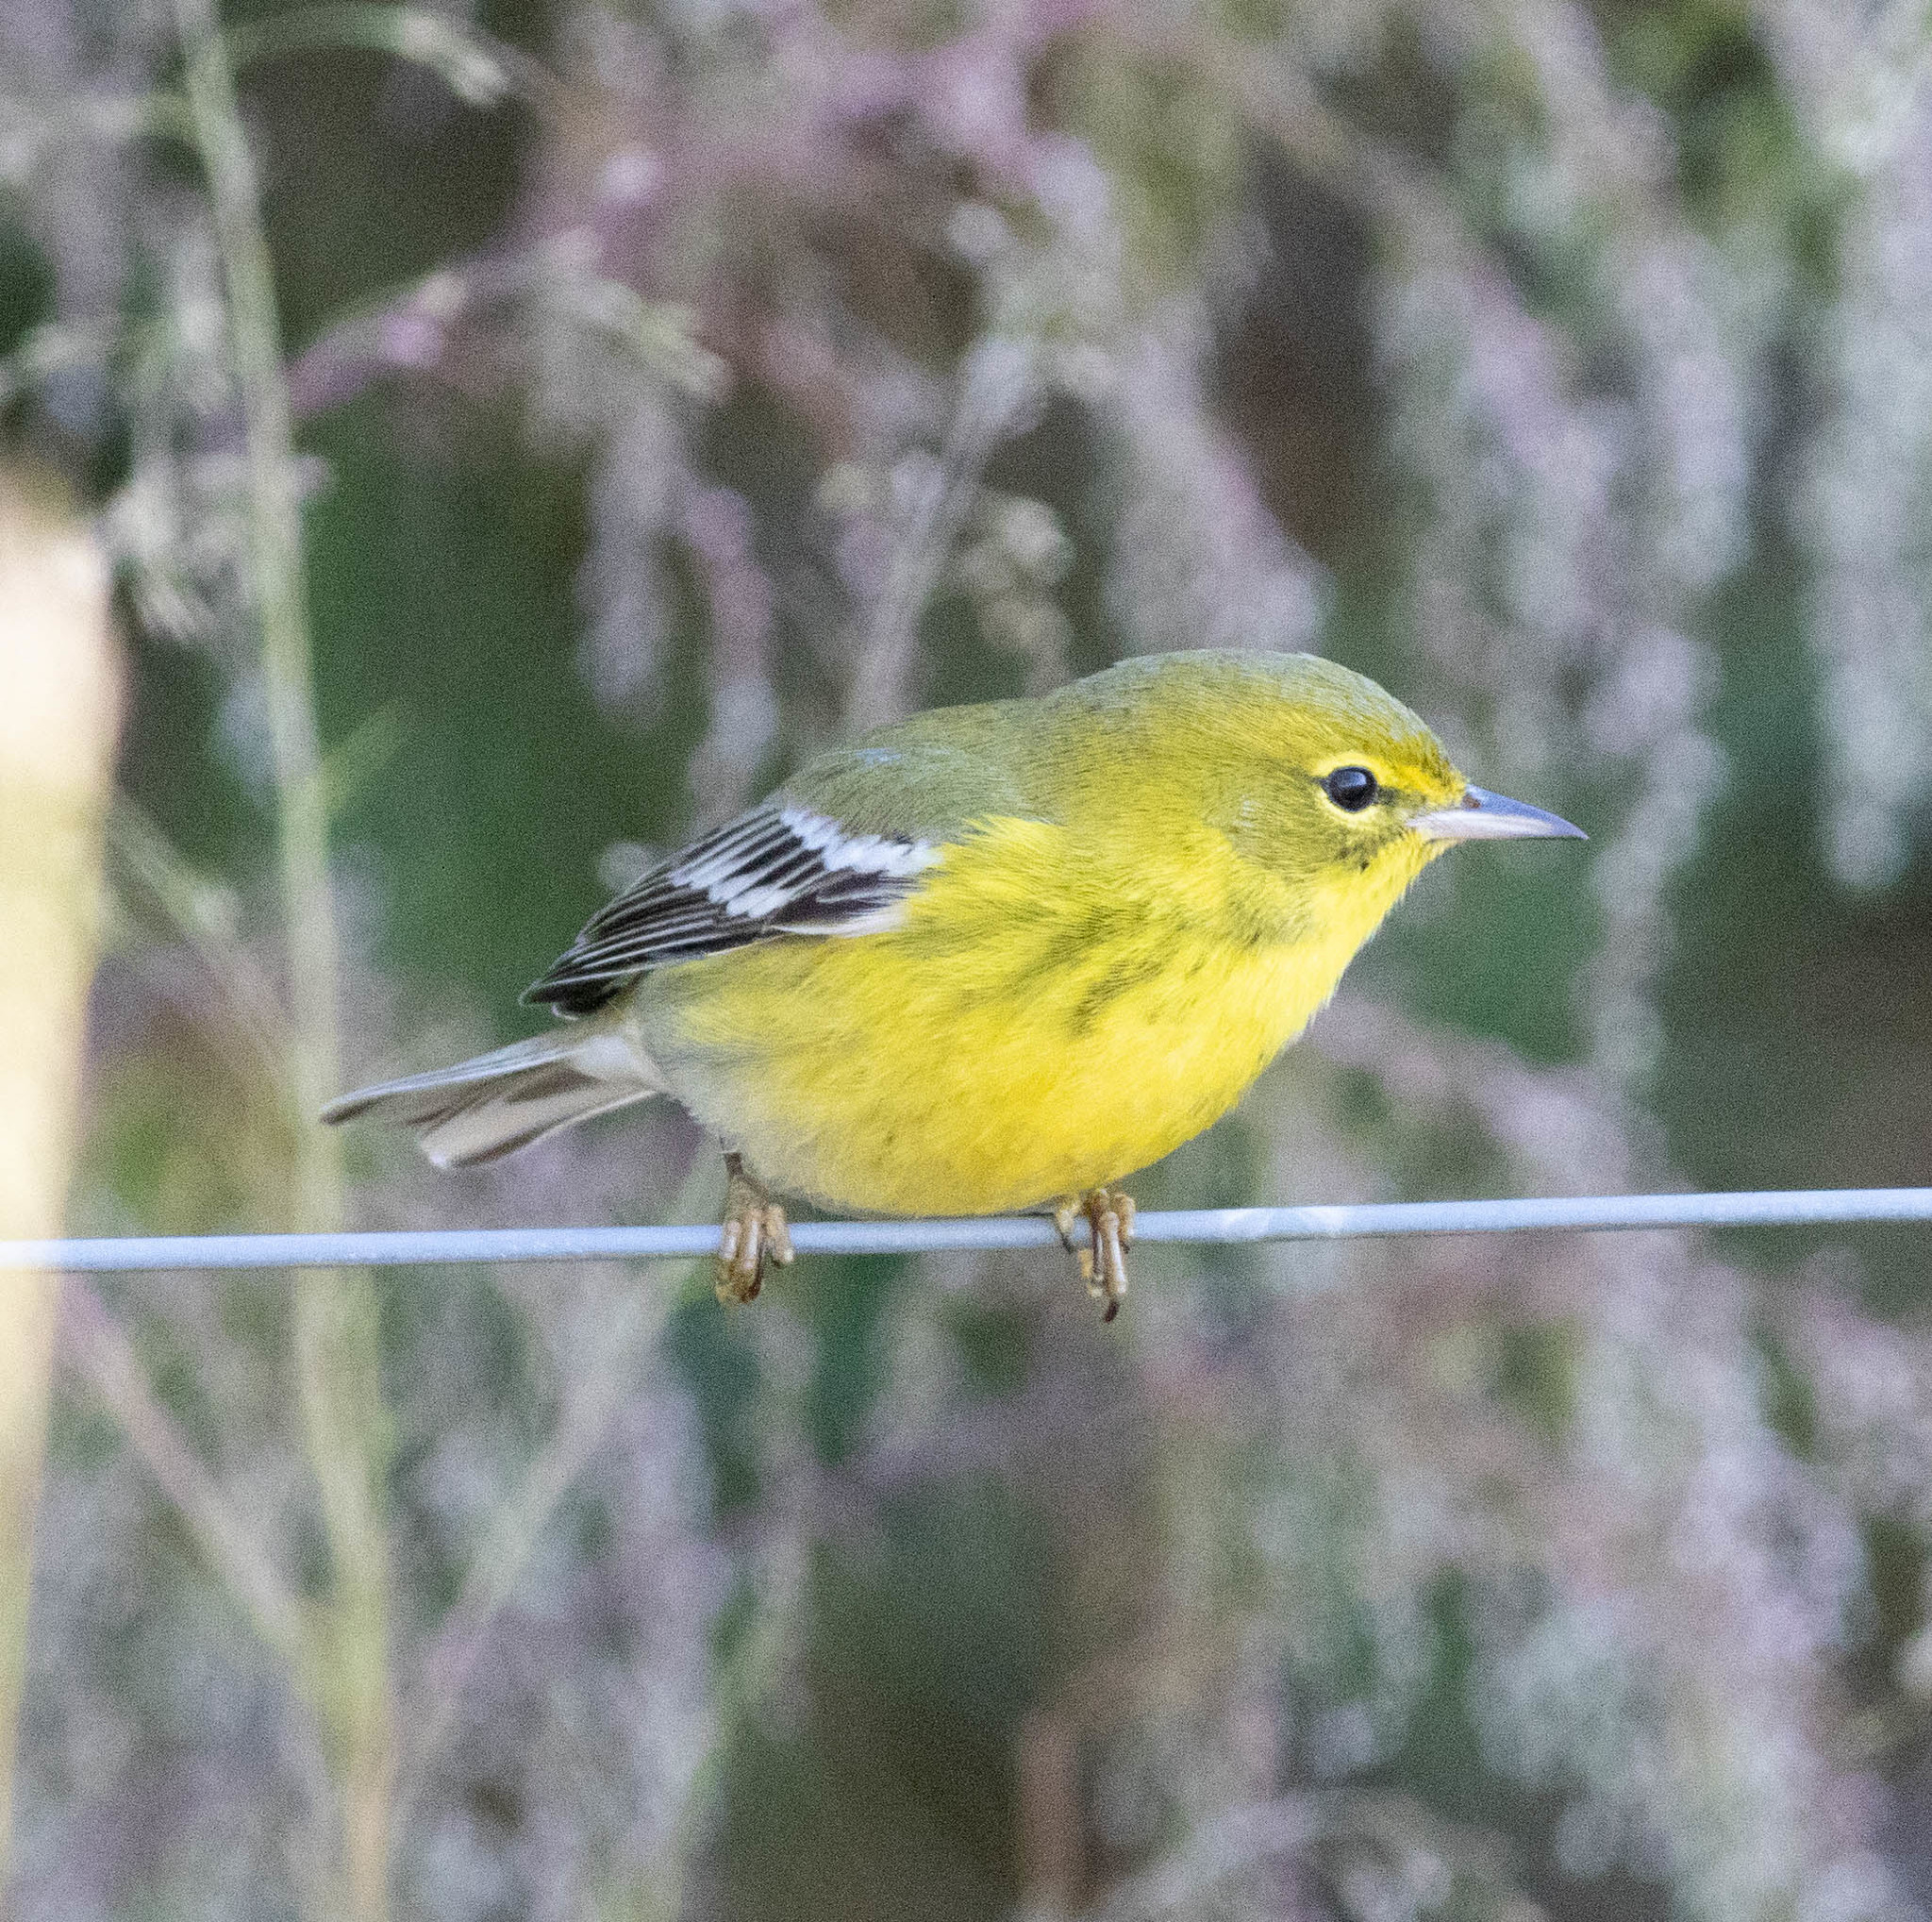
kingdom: Animalia
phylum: Chordata
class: Aves
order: Passeriformes
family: Parulidae
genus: Setophaga
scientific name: Setophaga pinus
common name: Pine warbler
